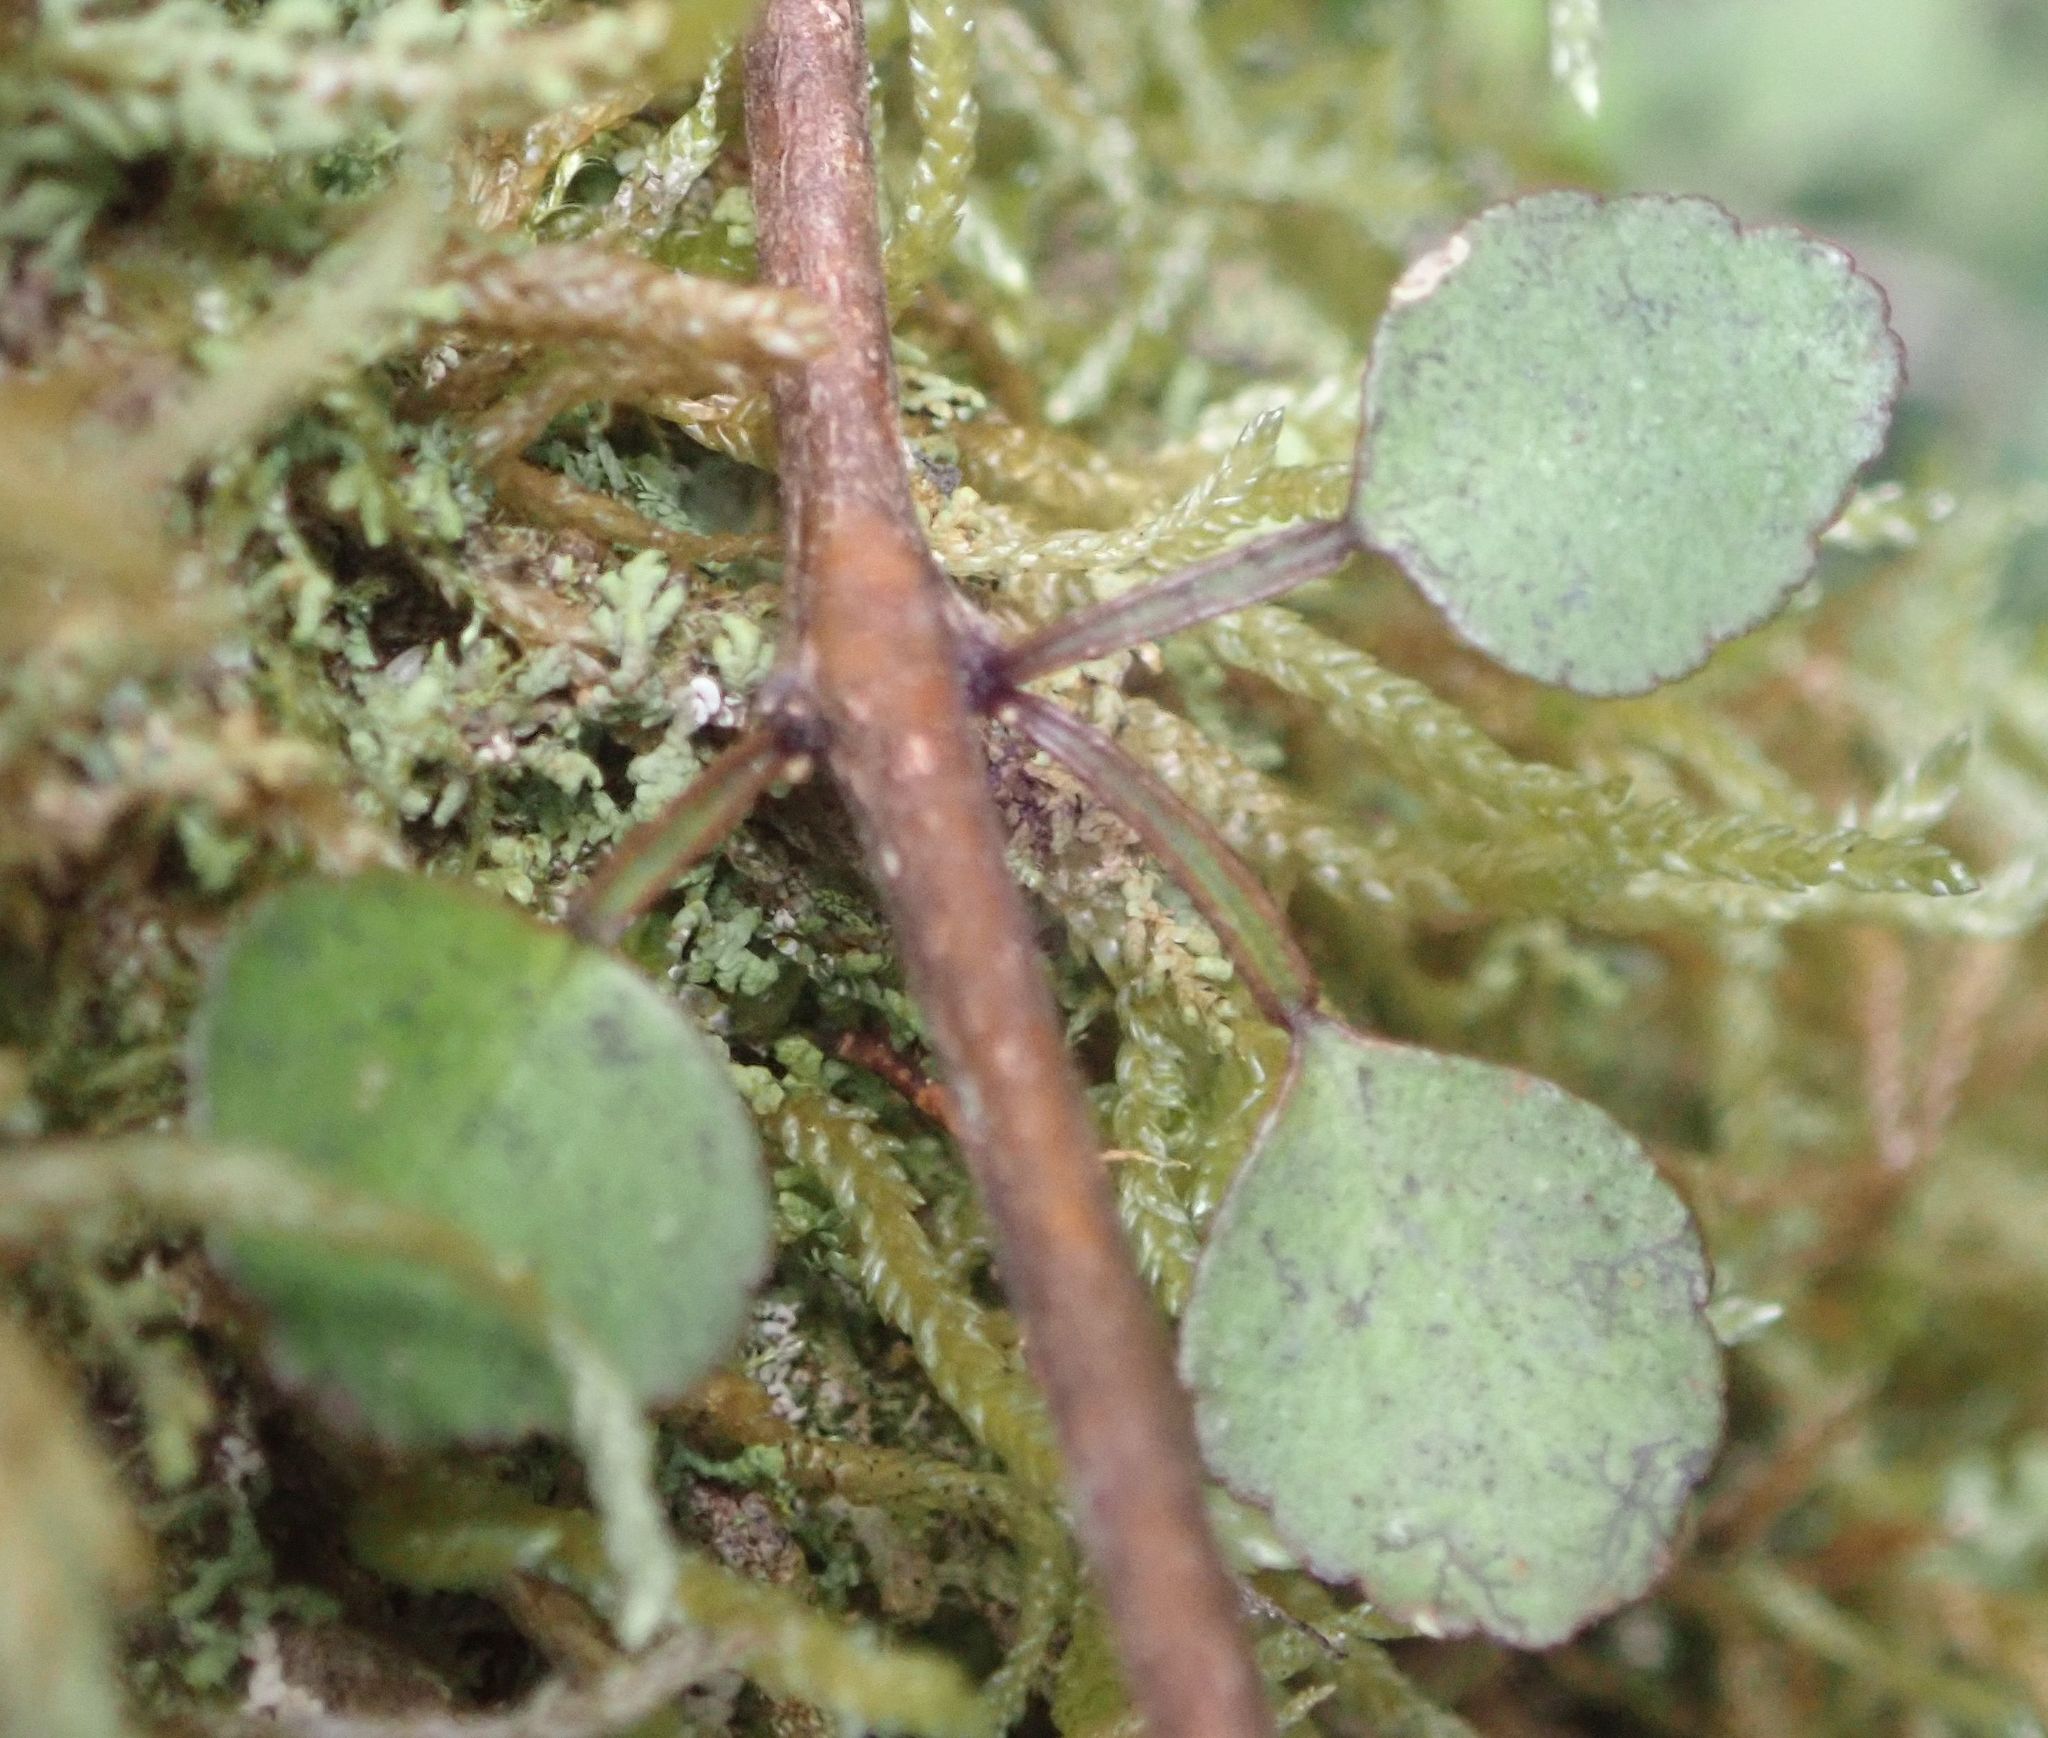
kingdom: Plantae
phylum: Tracheophyta
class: Magnoliopsida
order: Sapindales
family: Rutaceae
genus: Melicope
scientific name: Melicope simplex
